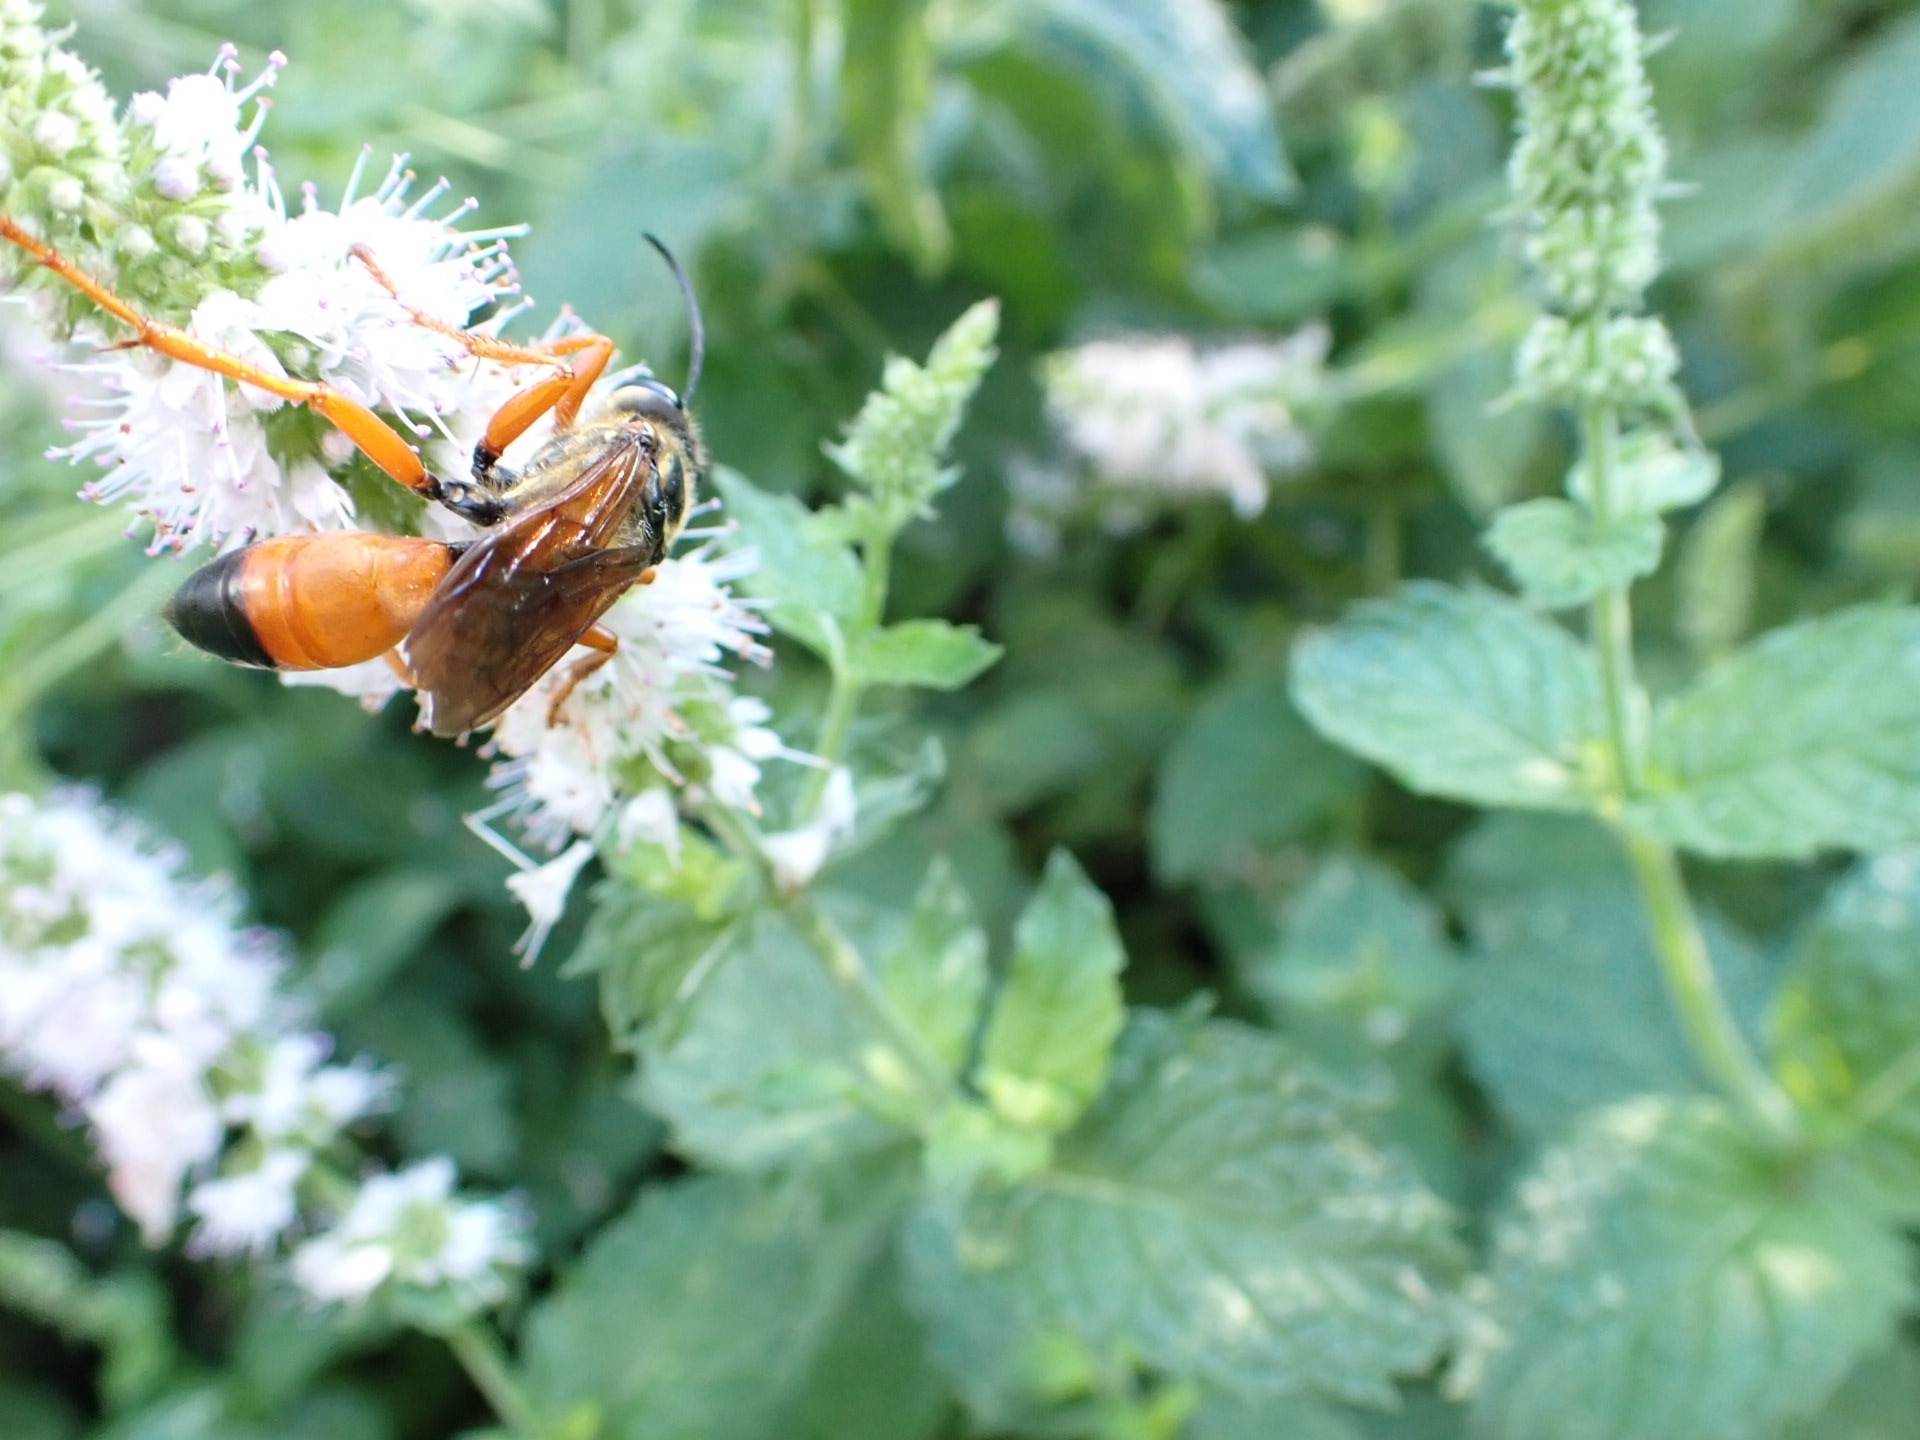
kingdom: Animalia
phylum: Arthropoda
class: Insecta
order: Hymenoptera
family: Sphecidae
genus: Sphex
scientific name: Sphex ichneumoneus
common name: Great golden digger wasp
